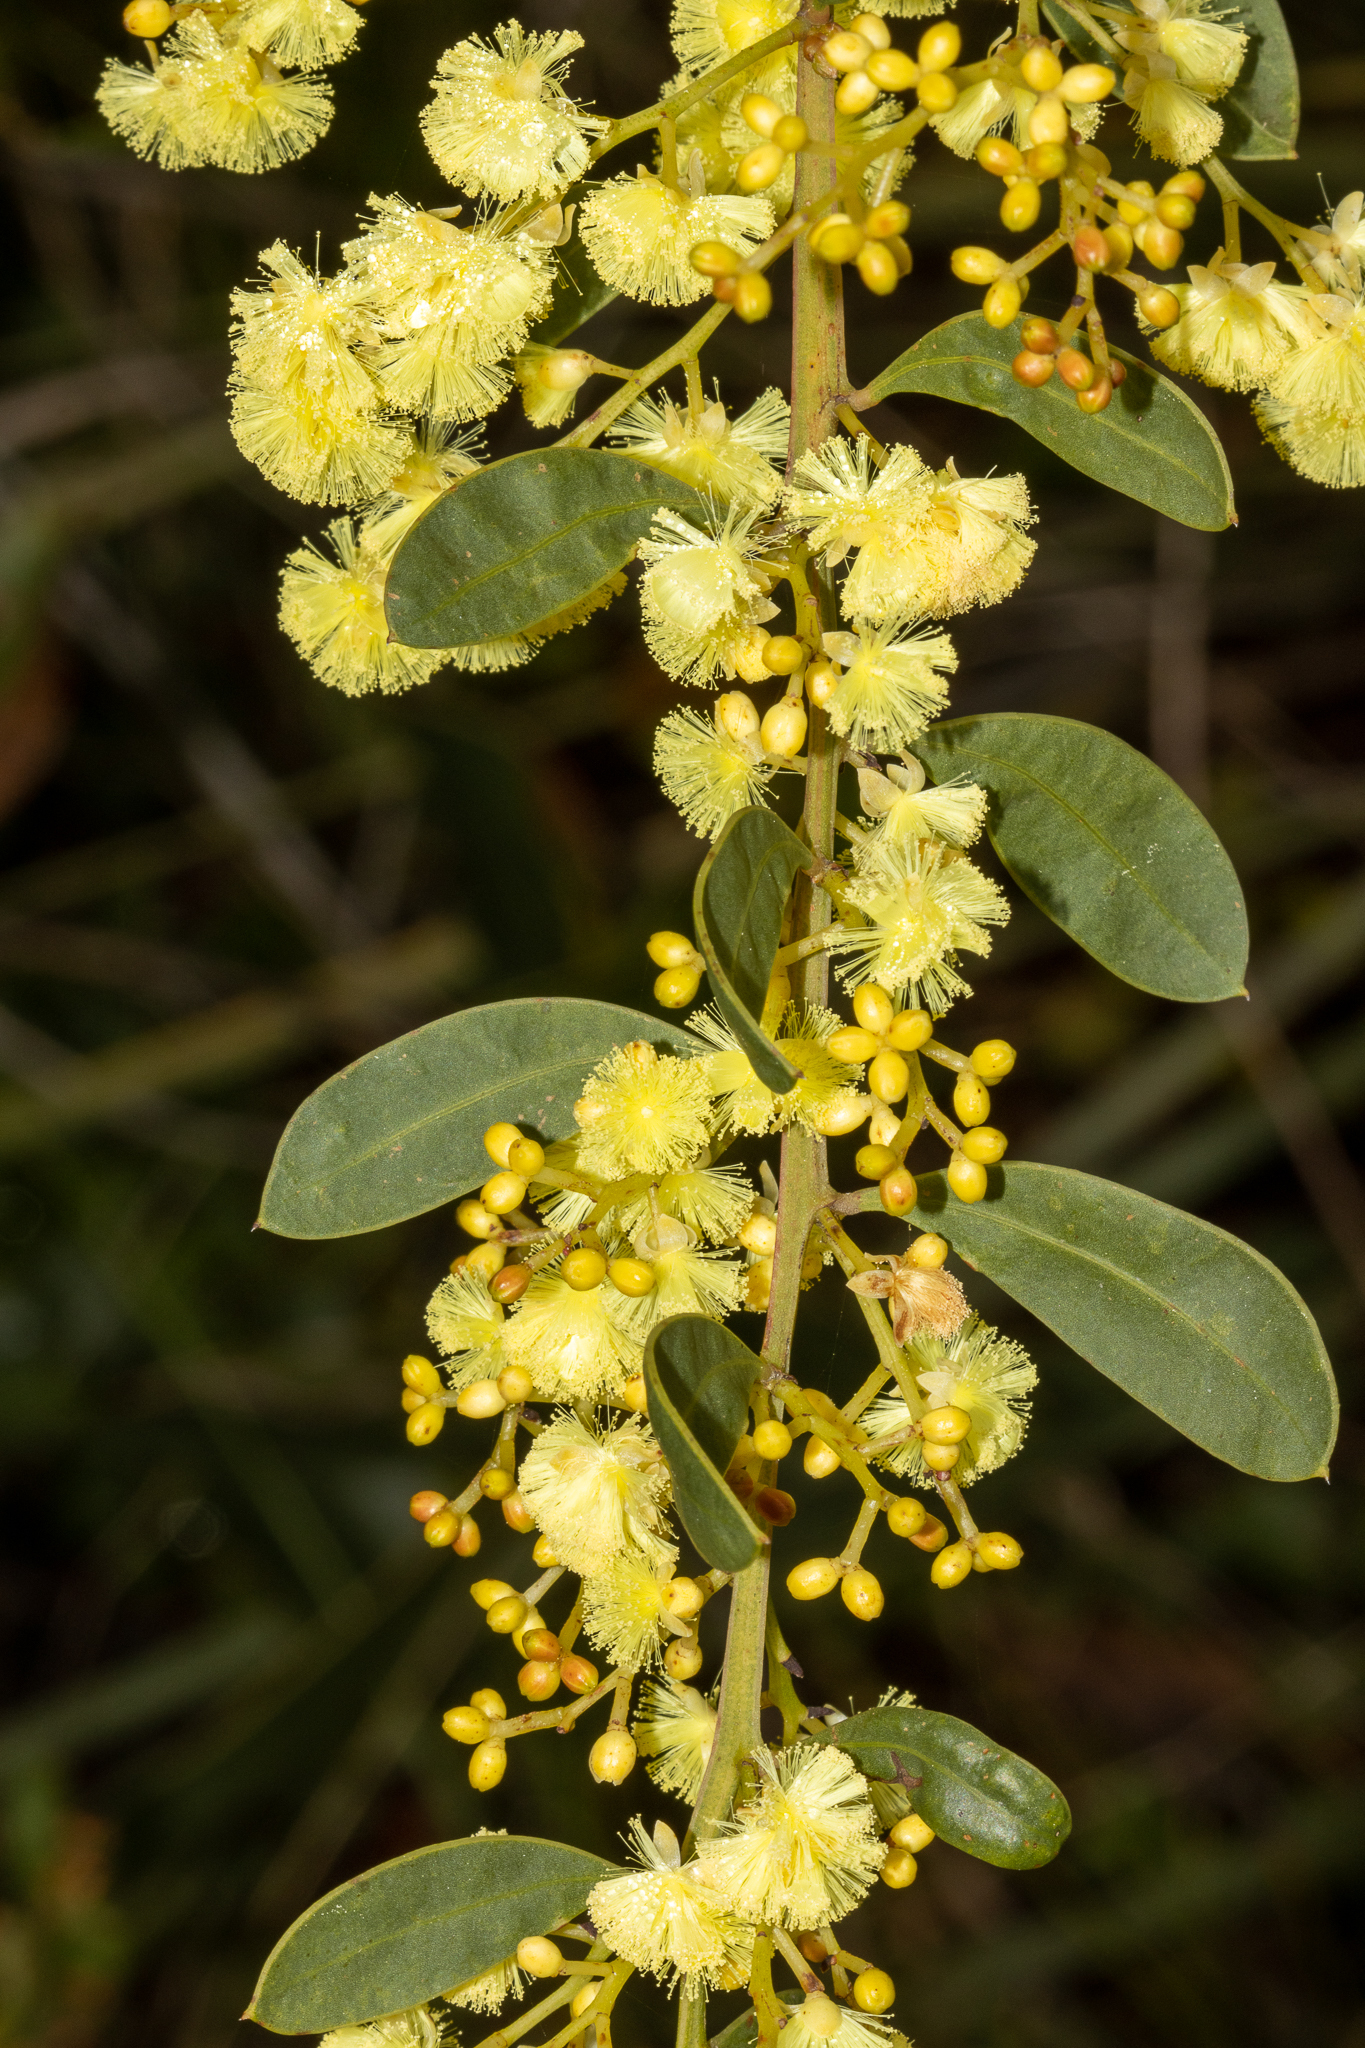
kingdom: Plantae
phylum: Tracheophyta
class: Magnoliopsida
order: Fabales
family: Fabaceae
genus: Acacia
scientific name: Acacia myrtifolia
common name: Myrtle wattle
